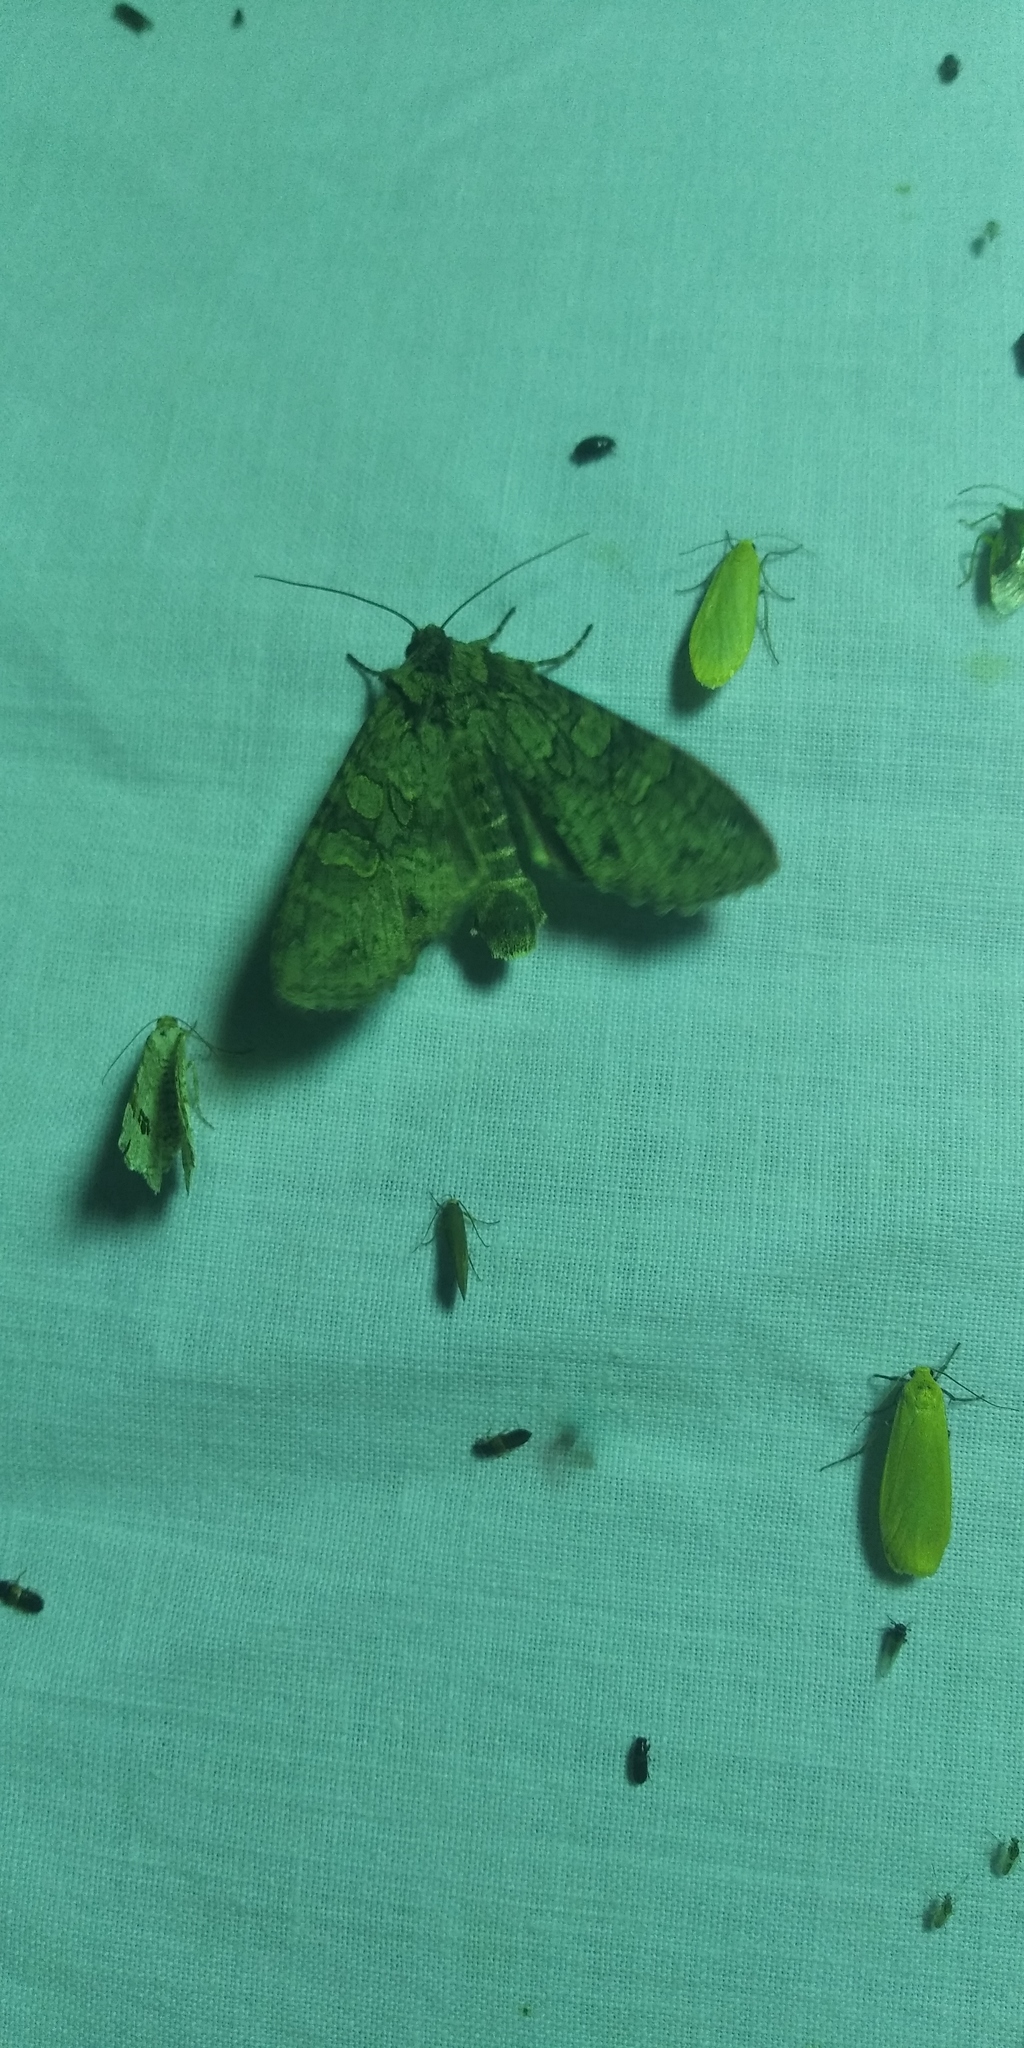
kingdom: Animalia
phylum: Arthropoda
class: Insecta
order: Lepidoptera
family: Noctuidae
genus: Polia
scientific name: Polia nebulosa
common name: Grey arches
